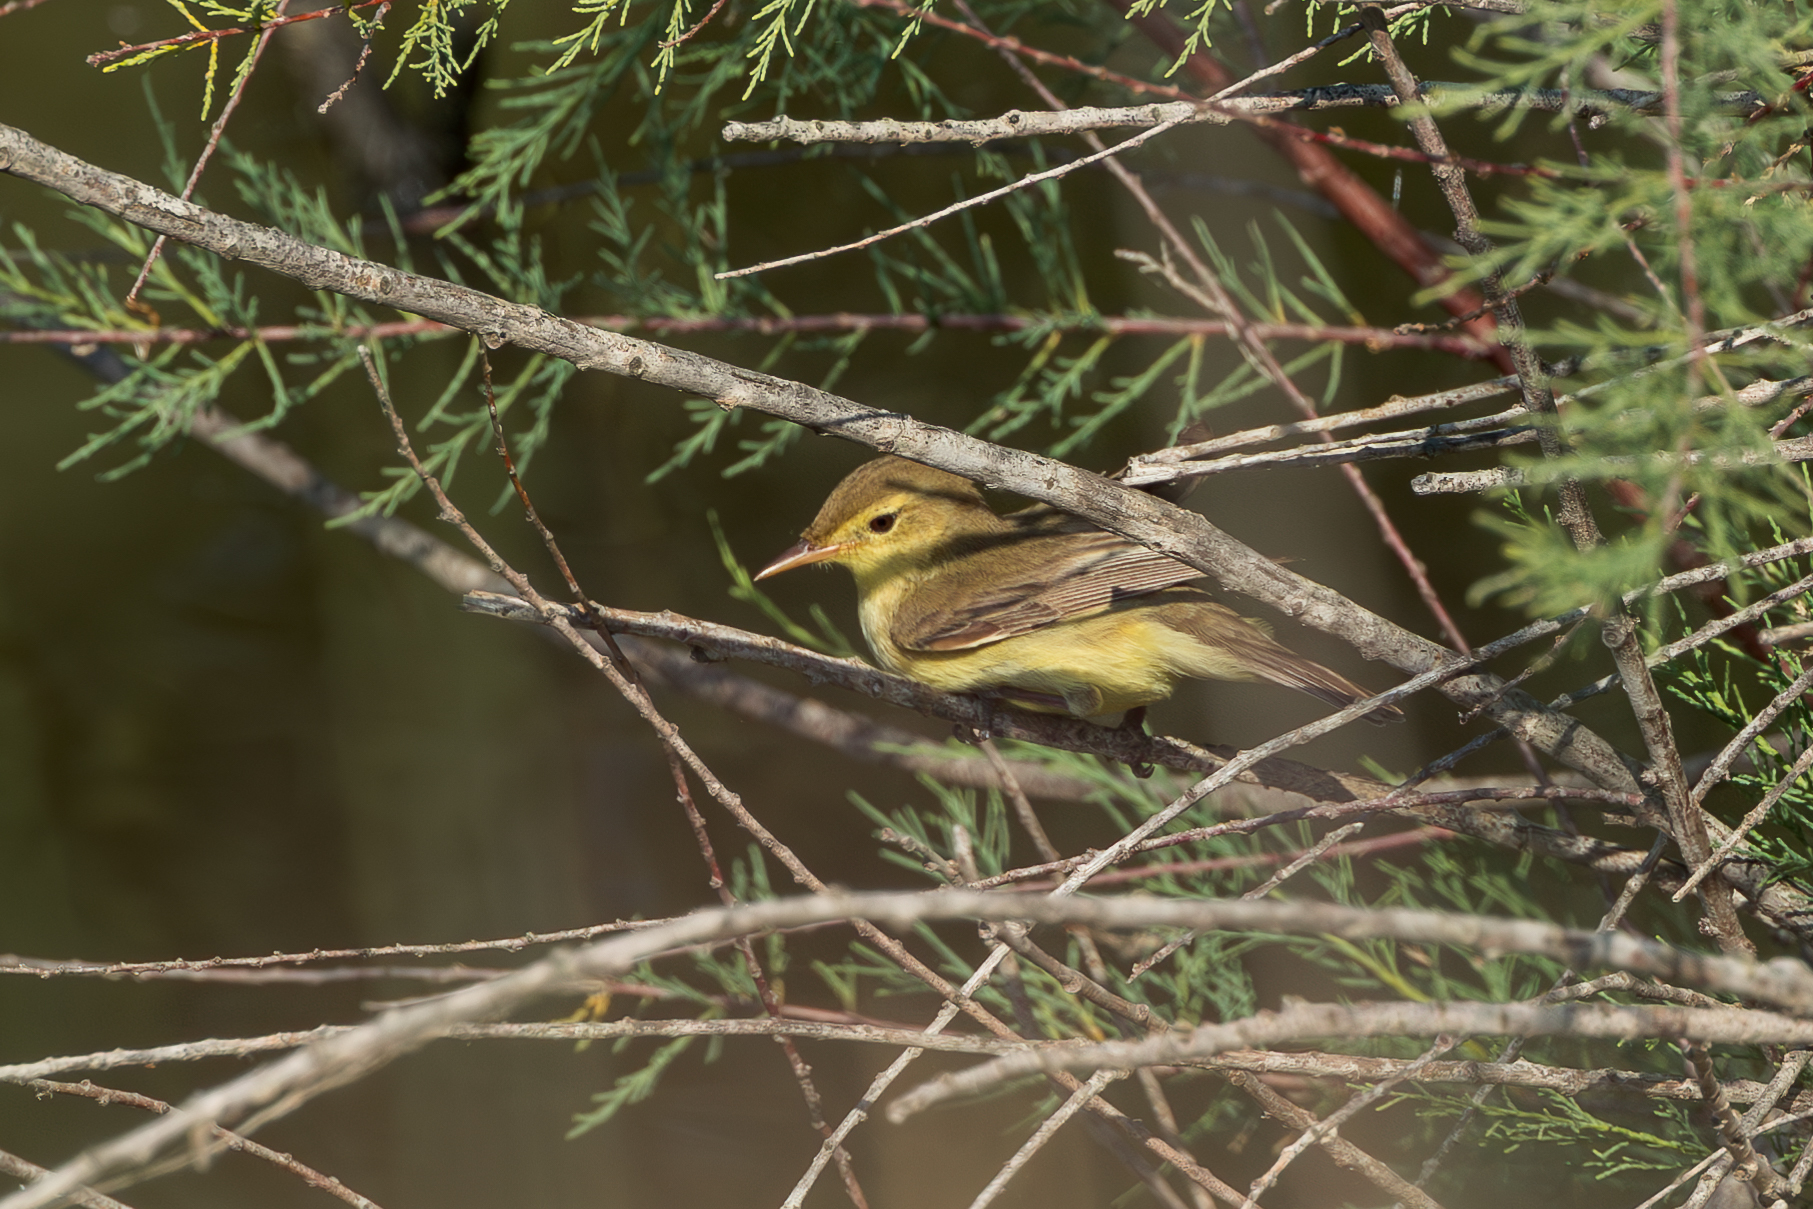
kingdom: Animalia
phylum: Chordata
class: Aves
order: Passeriformes
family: Acrocephalidae
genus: Hippolais
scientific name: Hippolais polyglotta
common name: Melodious warbler
